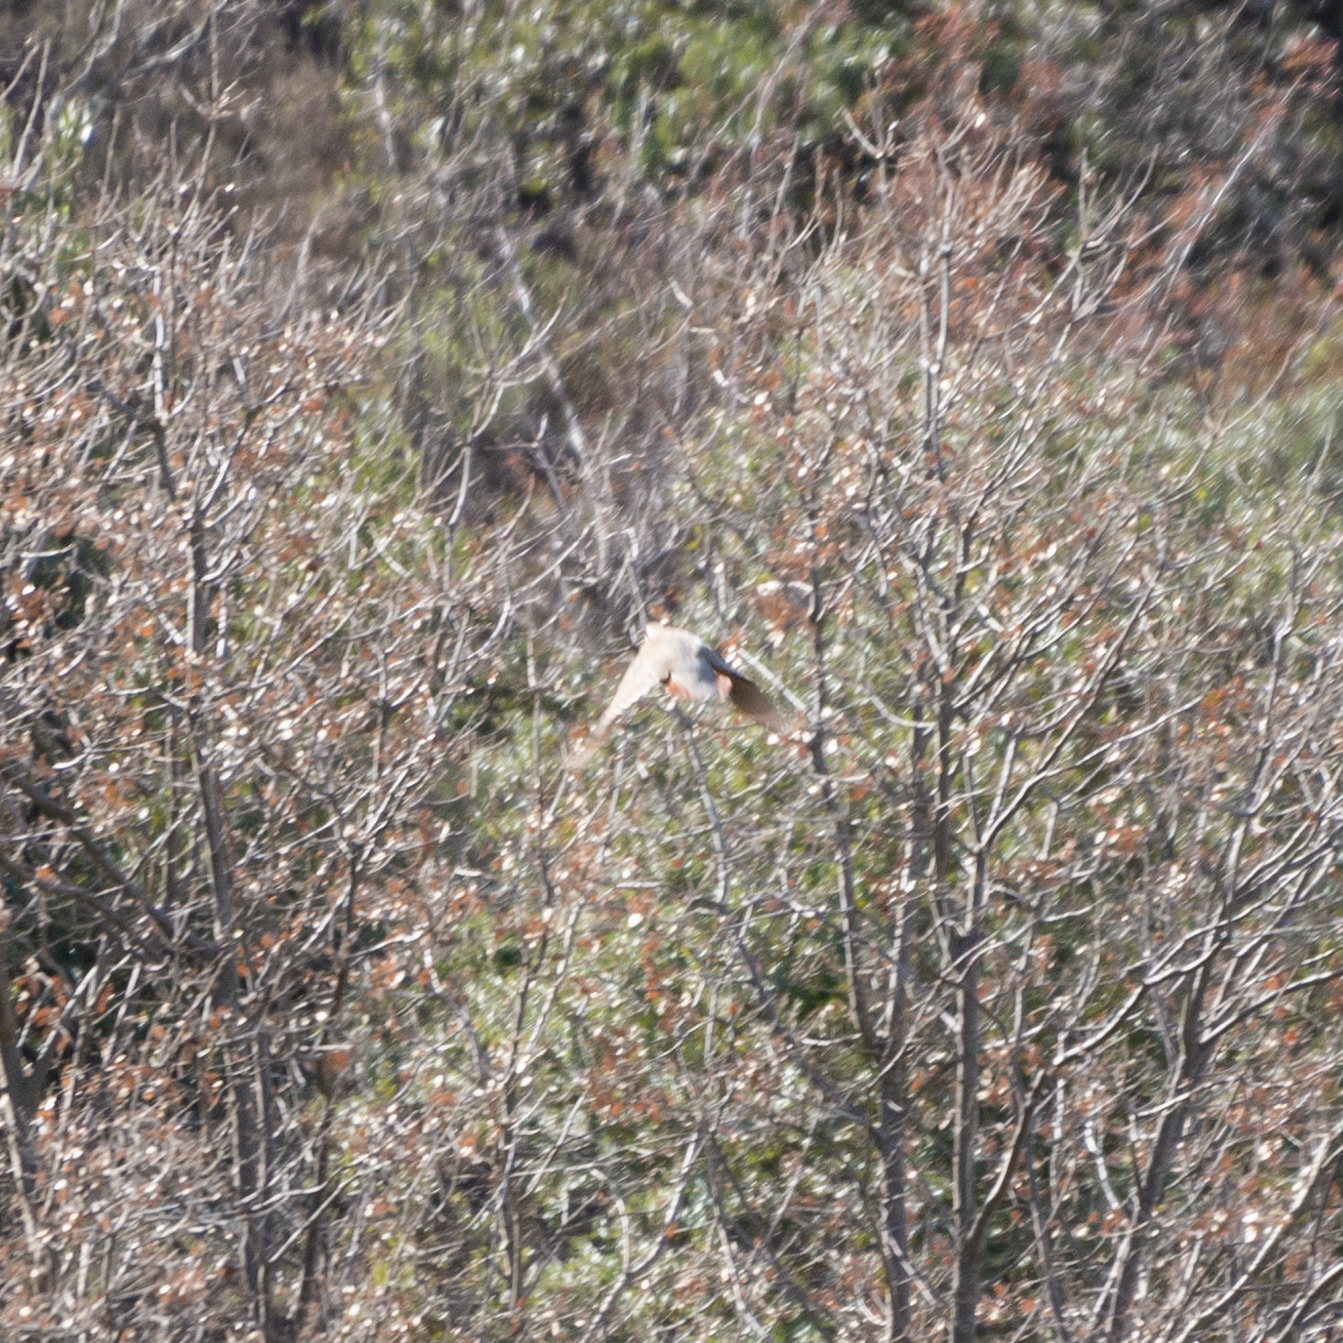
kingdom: Animalia
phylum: Chordata
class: Aves
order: Galliformes
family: Phasianidae
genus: Alectoris
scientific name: Alectoris rufa
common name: Red-legged partridge
